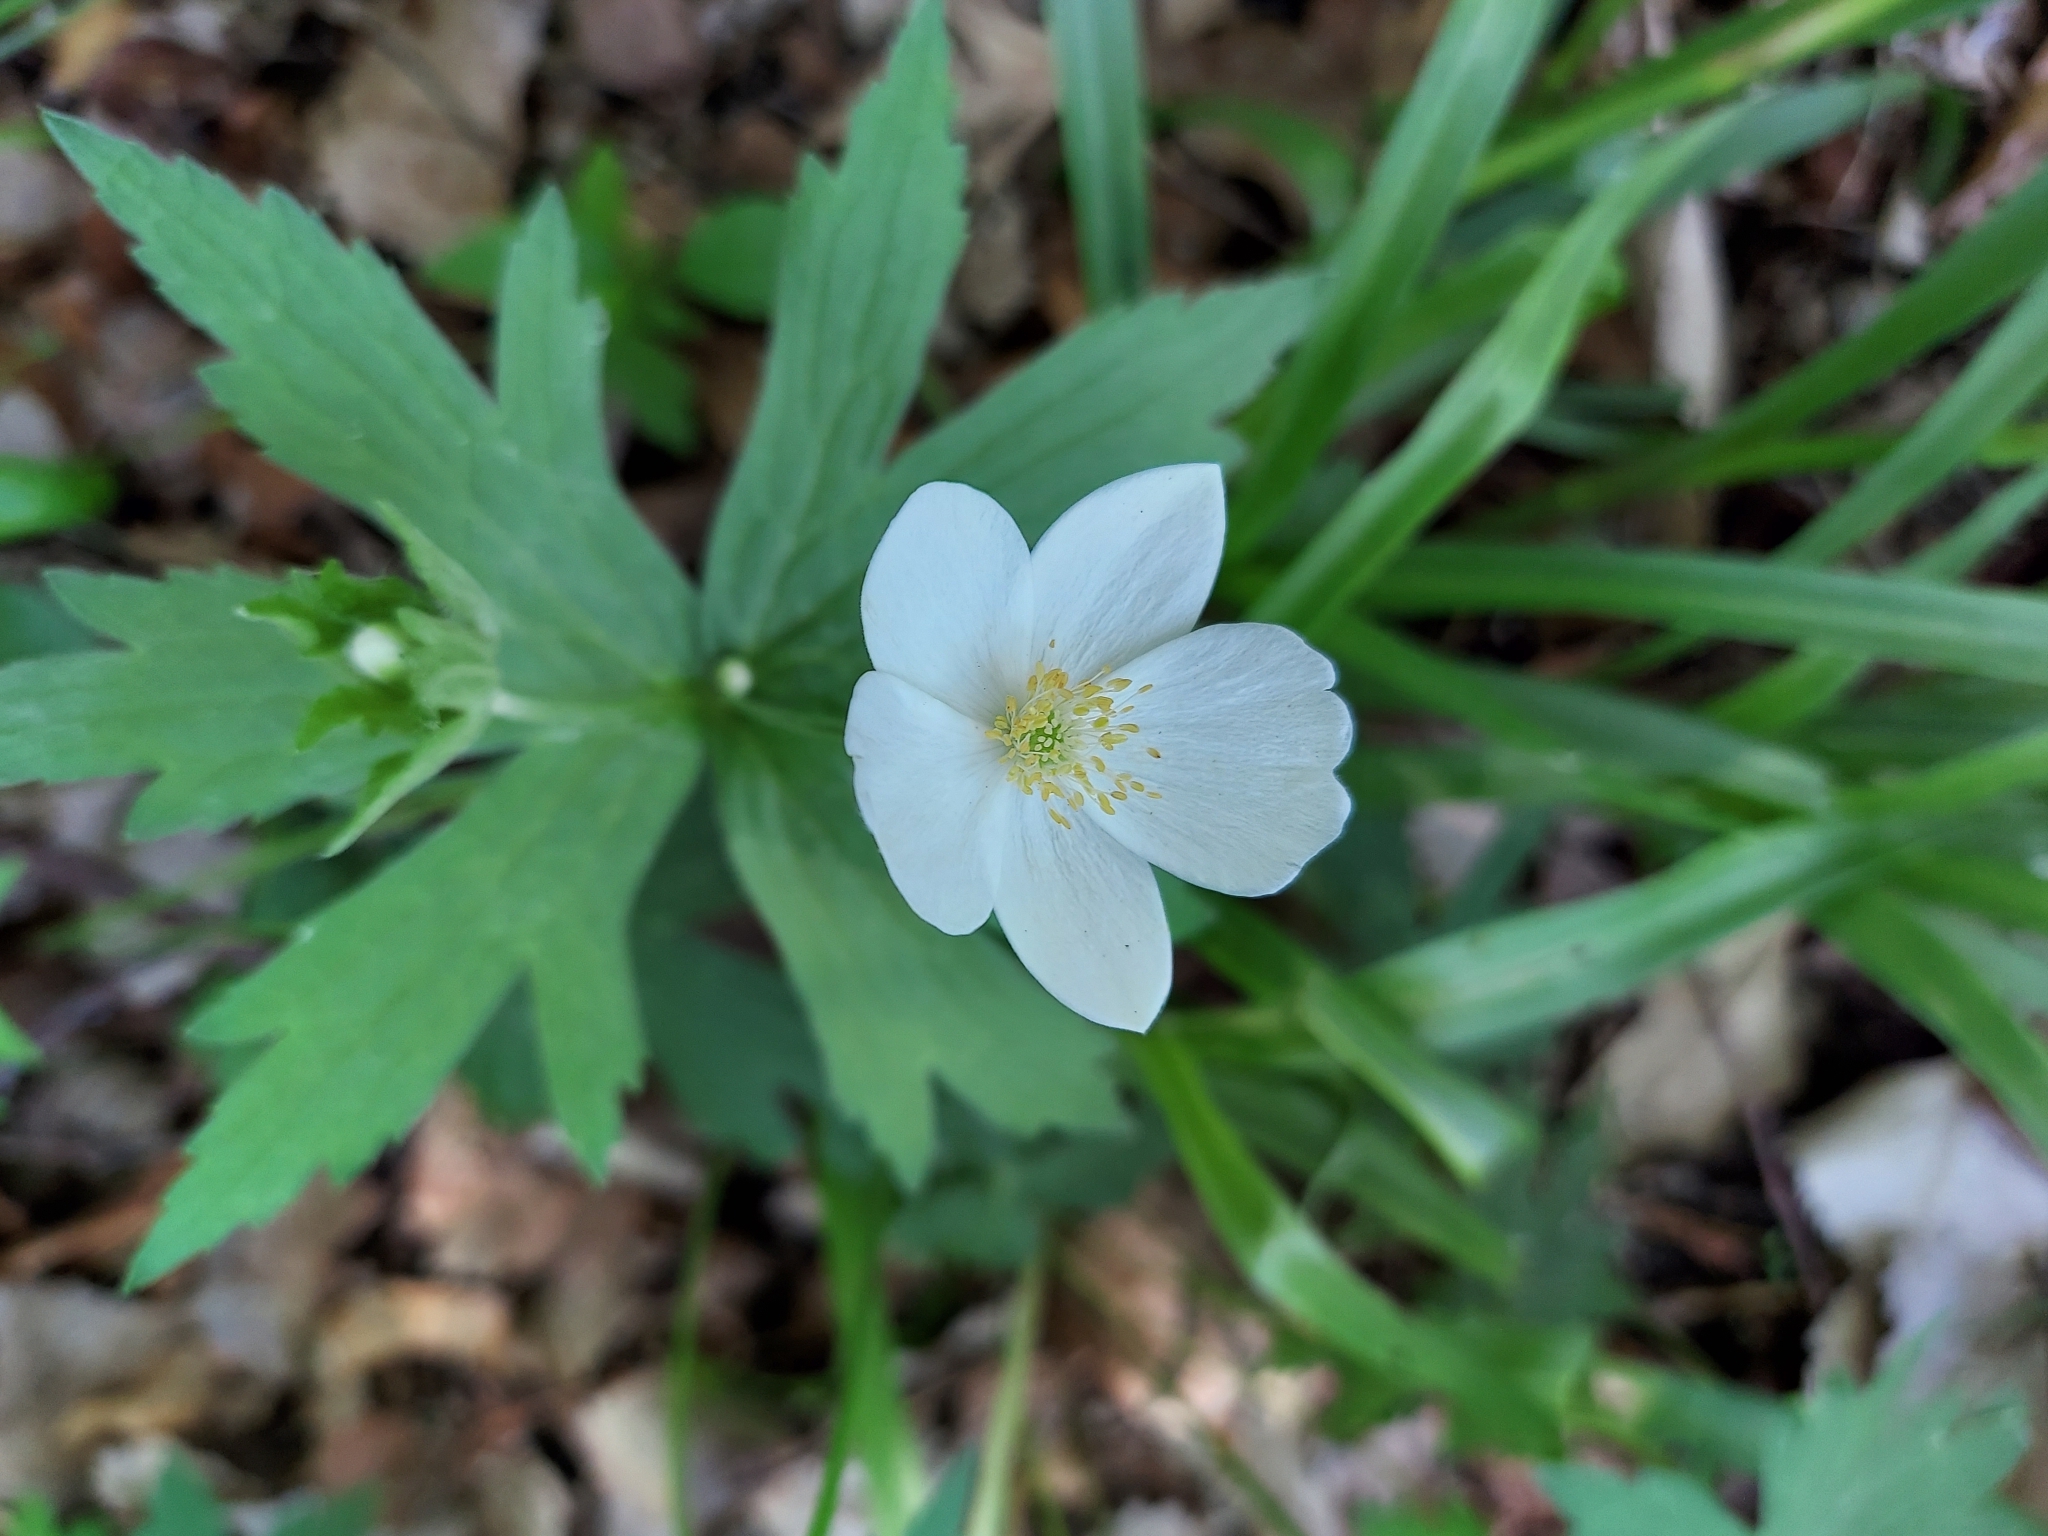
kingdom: Plantae
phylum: Tracheophyta
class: Magnoliopsida
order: Ranunculales
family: Ranunculaceae
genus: Anemonastrum
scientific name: Anemonastrum canadense
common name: Canada anemone
